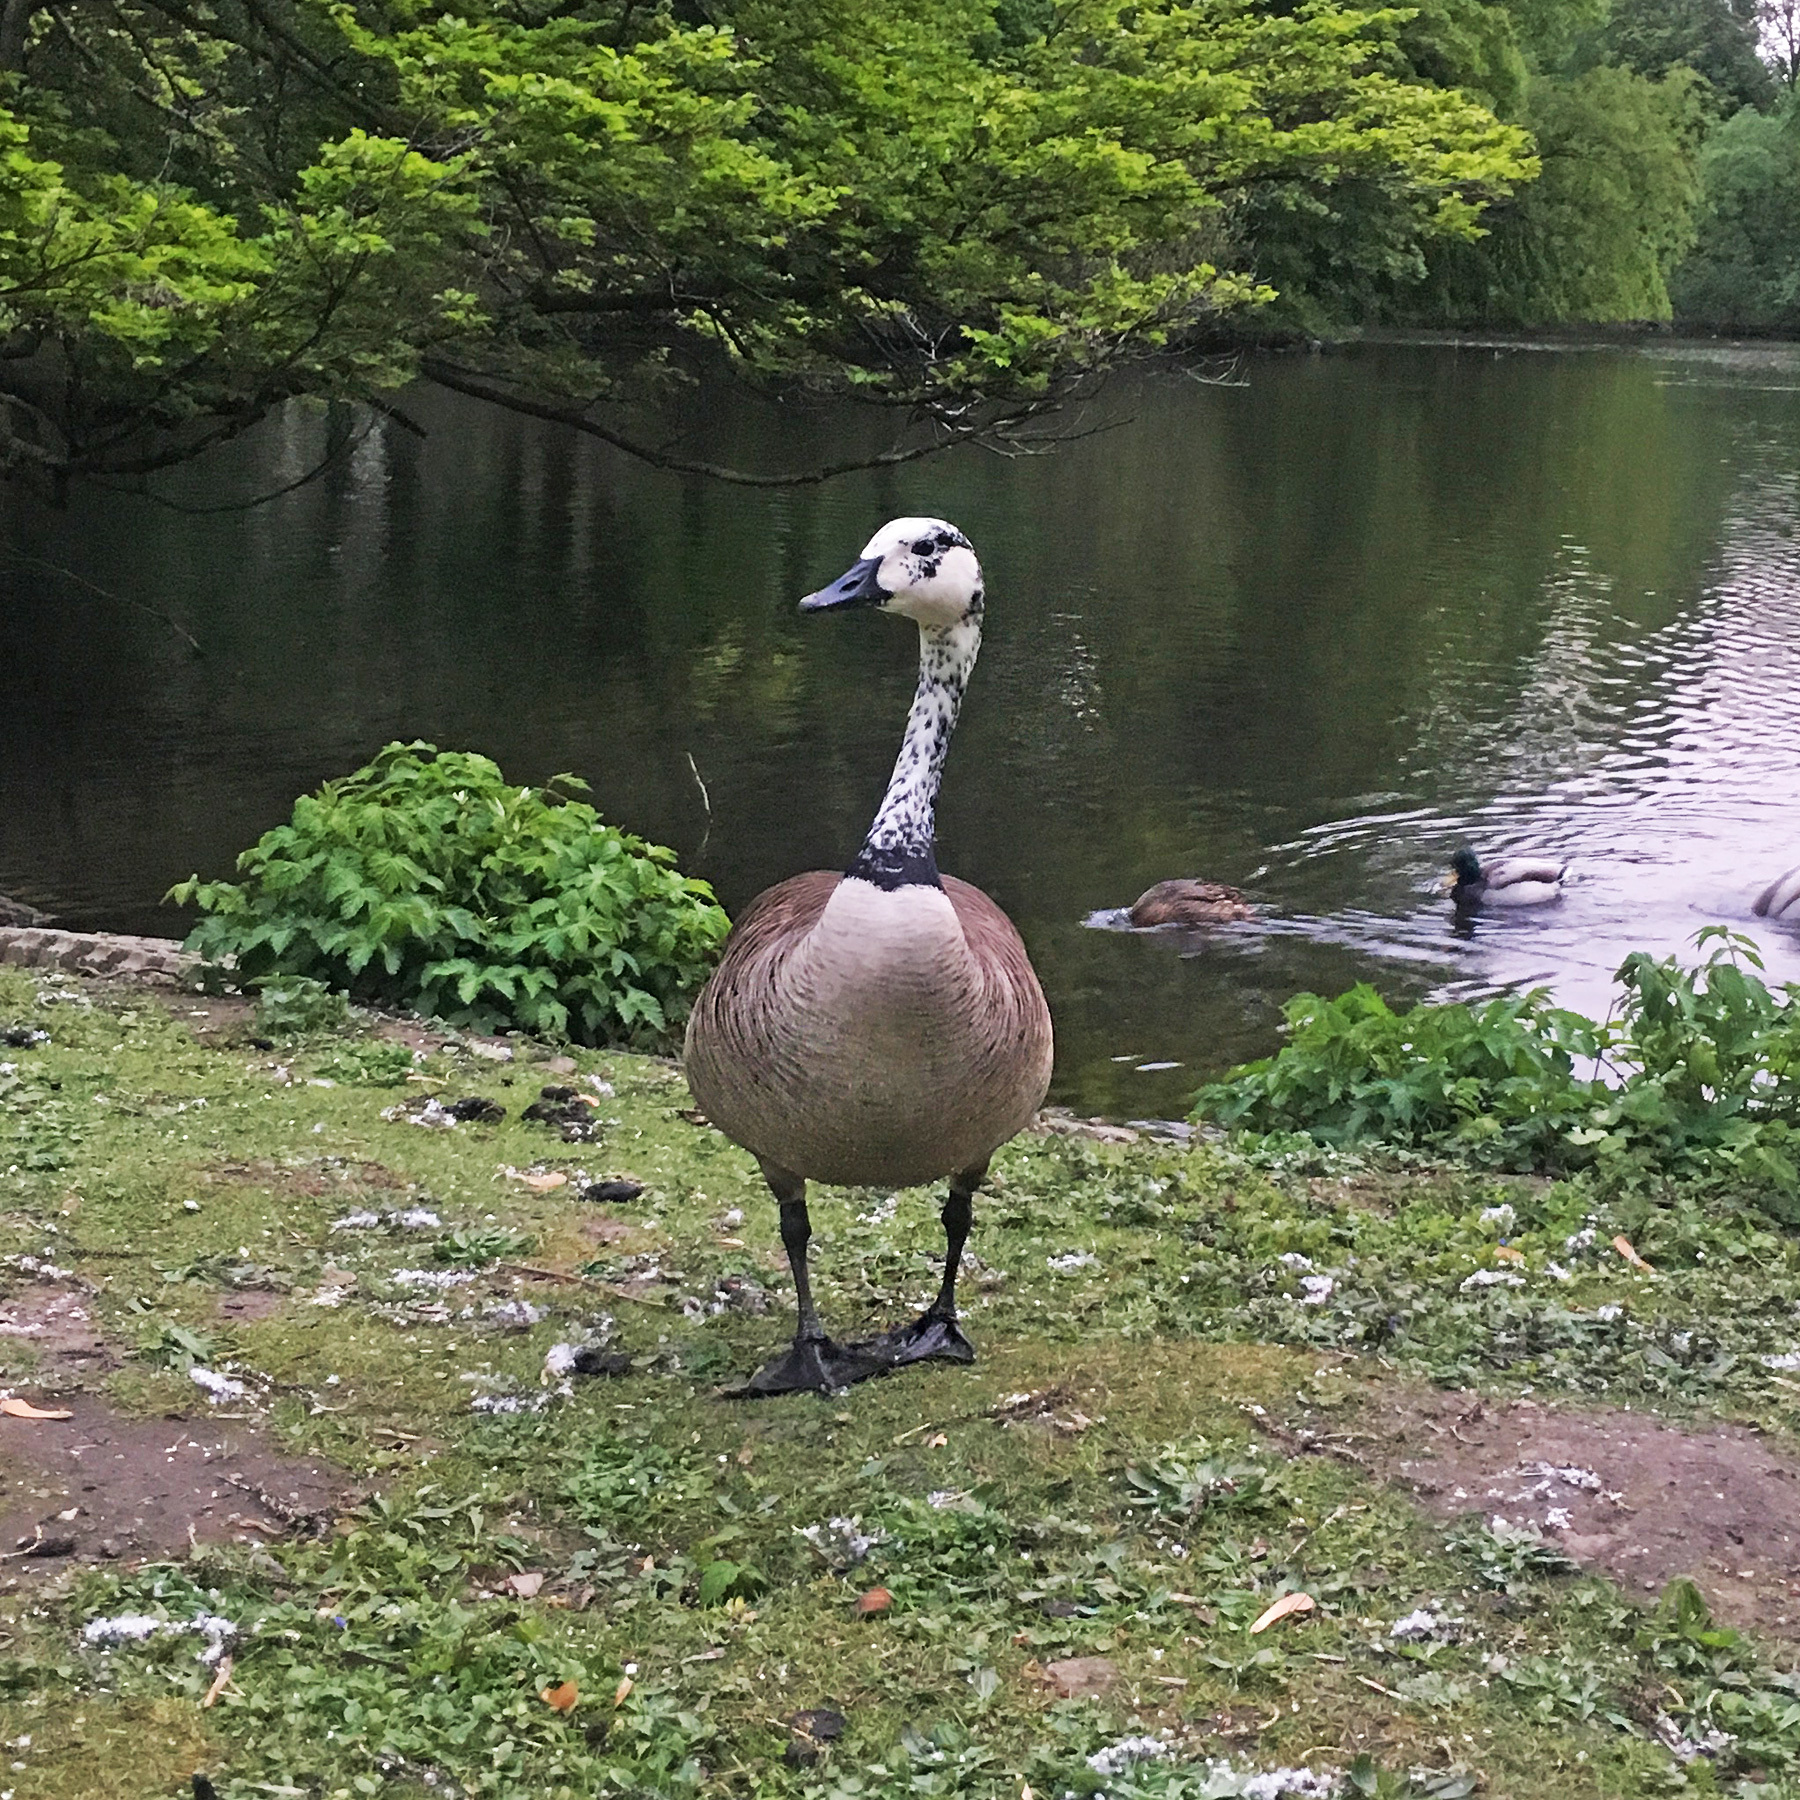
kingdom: Animalia
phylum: Chordata
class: Aves
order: Anseriformes
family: Anatidae
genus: Branta
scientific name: Branta canadensis
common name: Canada goose
